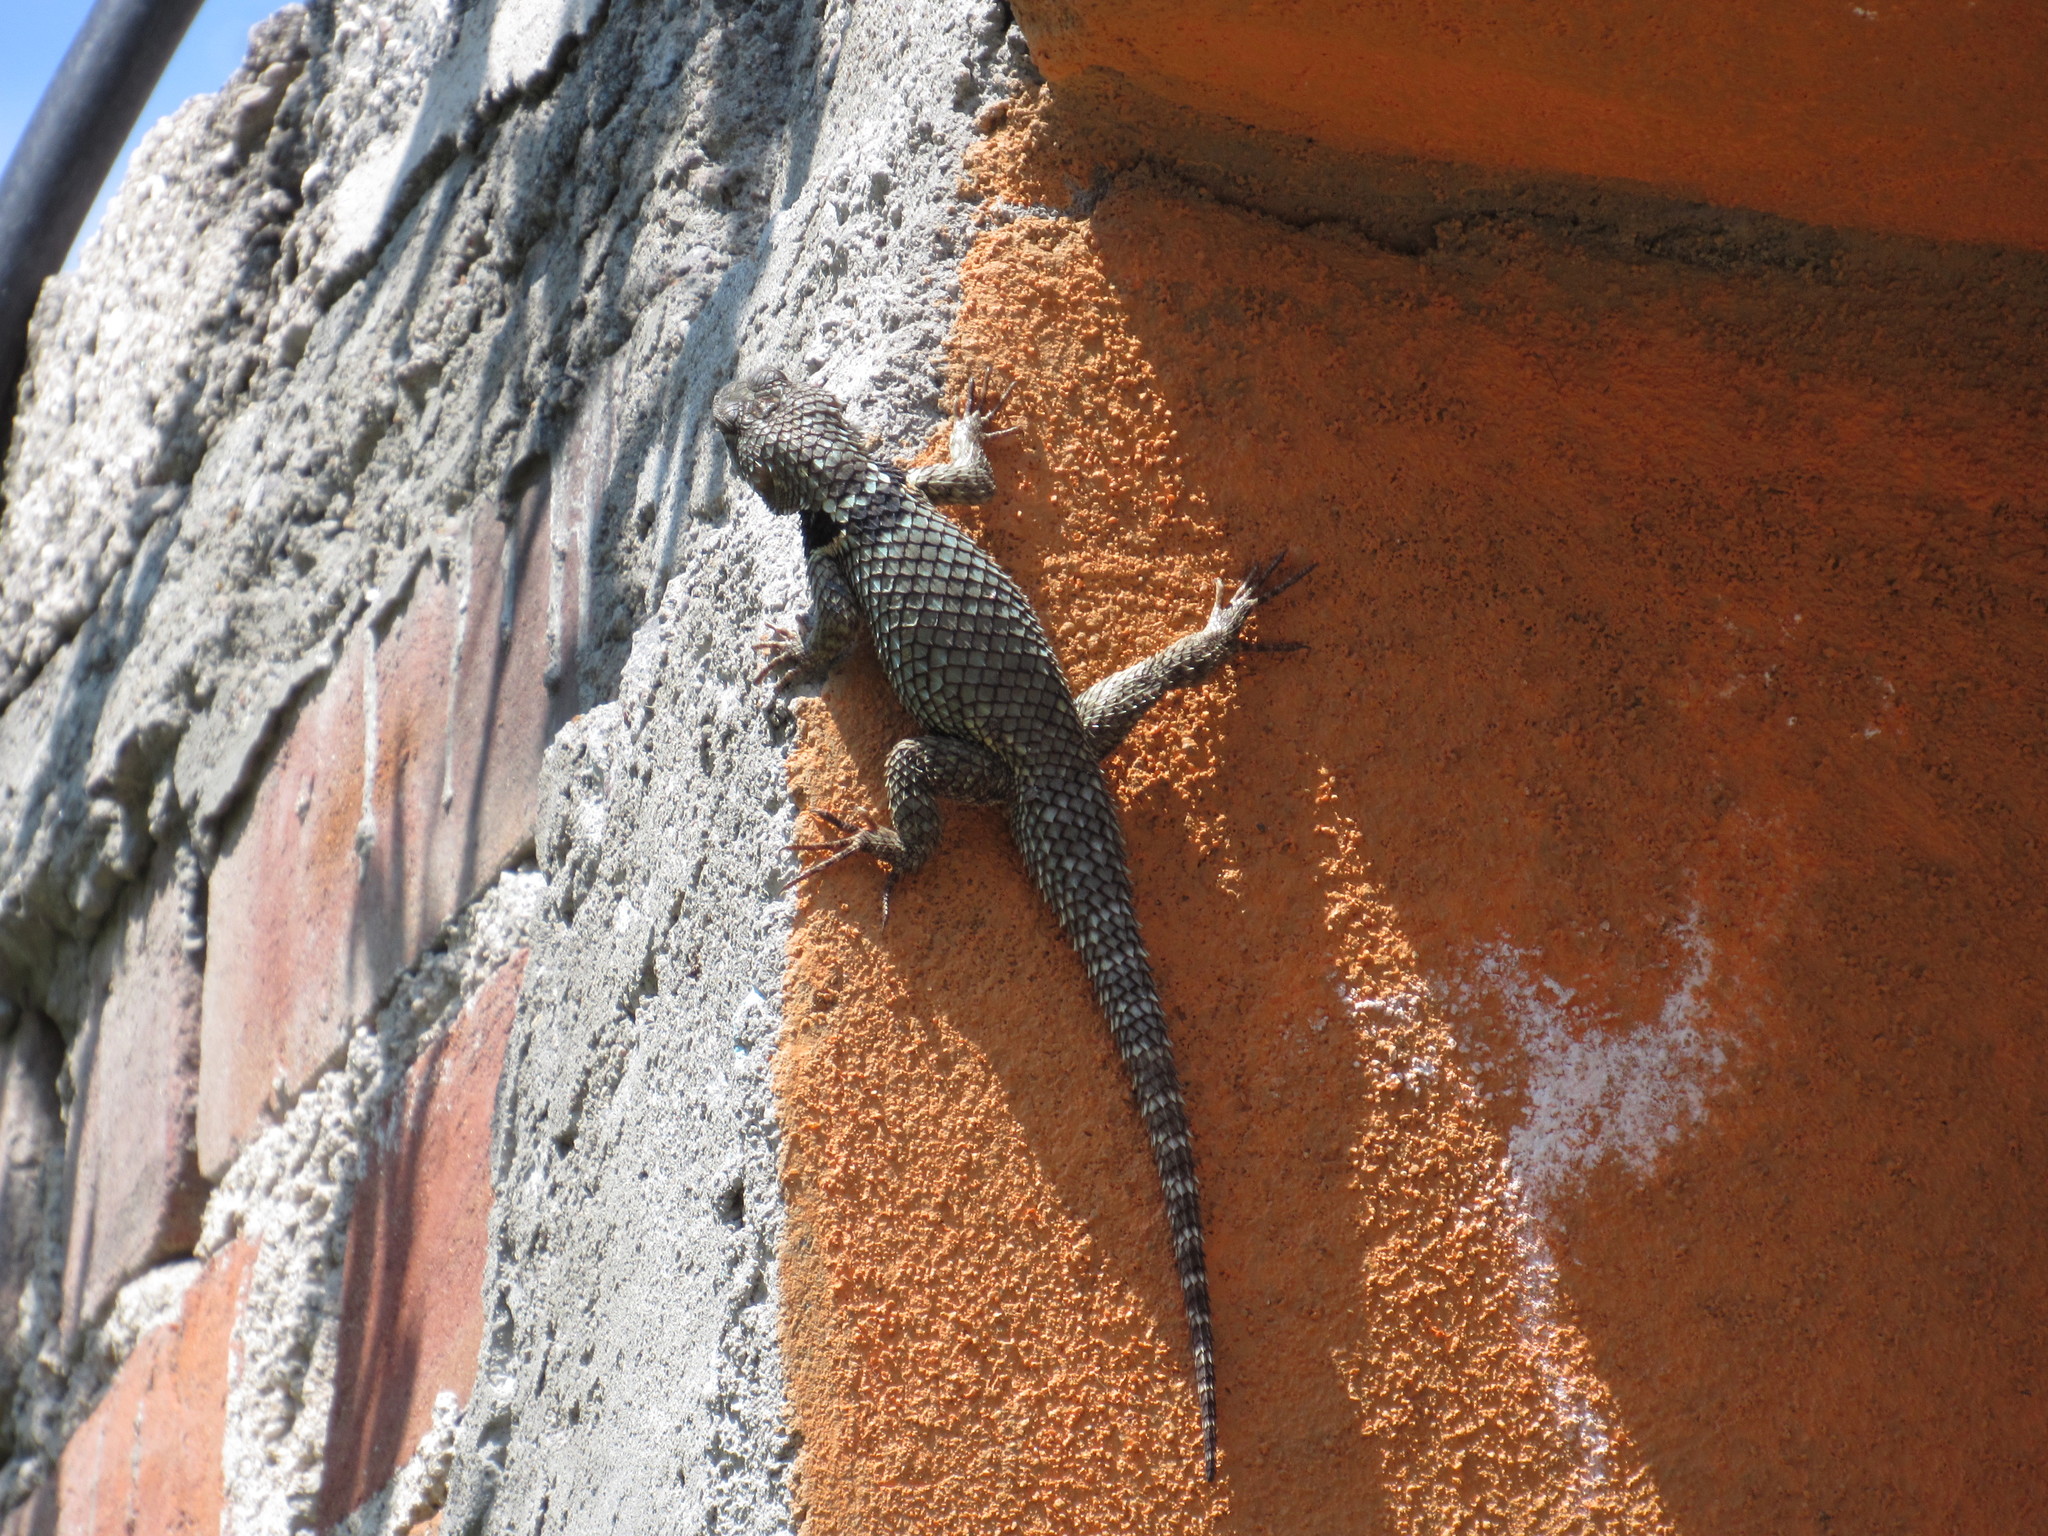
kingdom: Animalia
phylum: Chordata
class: Squamata
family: Phrynosomatidae
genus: Sceloporus
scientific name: Sceloporus torquatus
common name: Central plateau torquate lizard [melanogaster]
